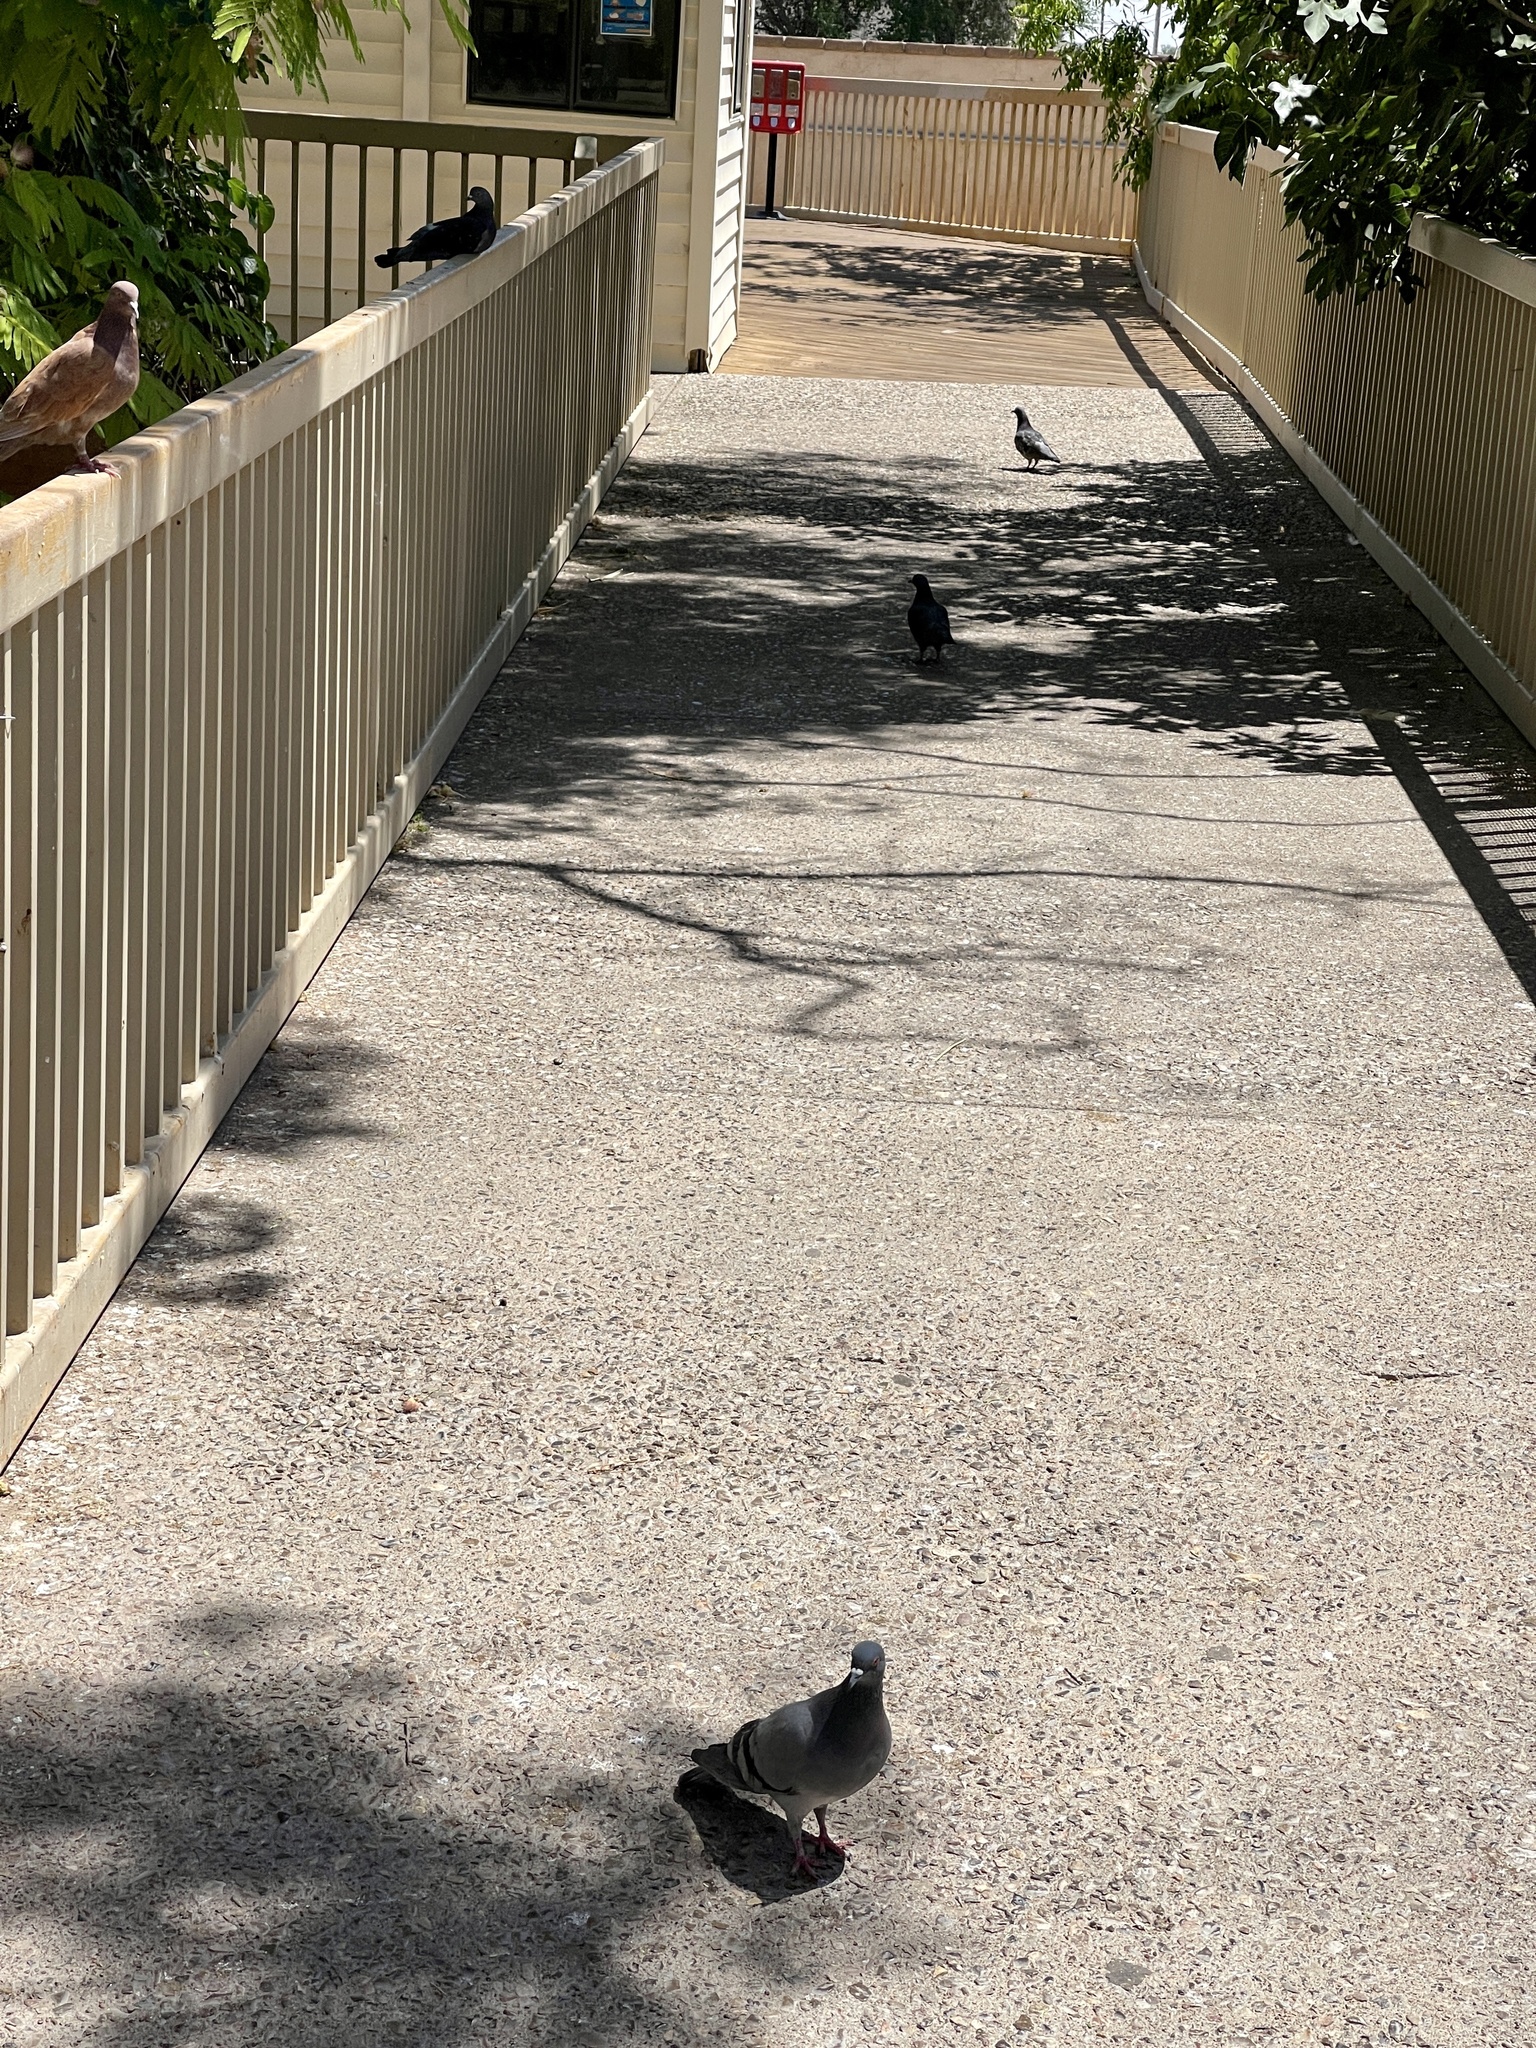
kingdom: Animalia
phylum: Chordata
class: Aves
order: Columbiformes
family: Columbidae
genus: Columba
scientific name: Columba livia
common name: Rock pigeon
